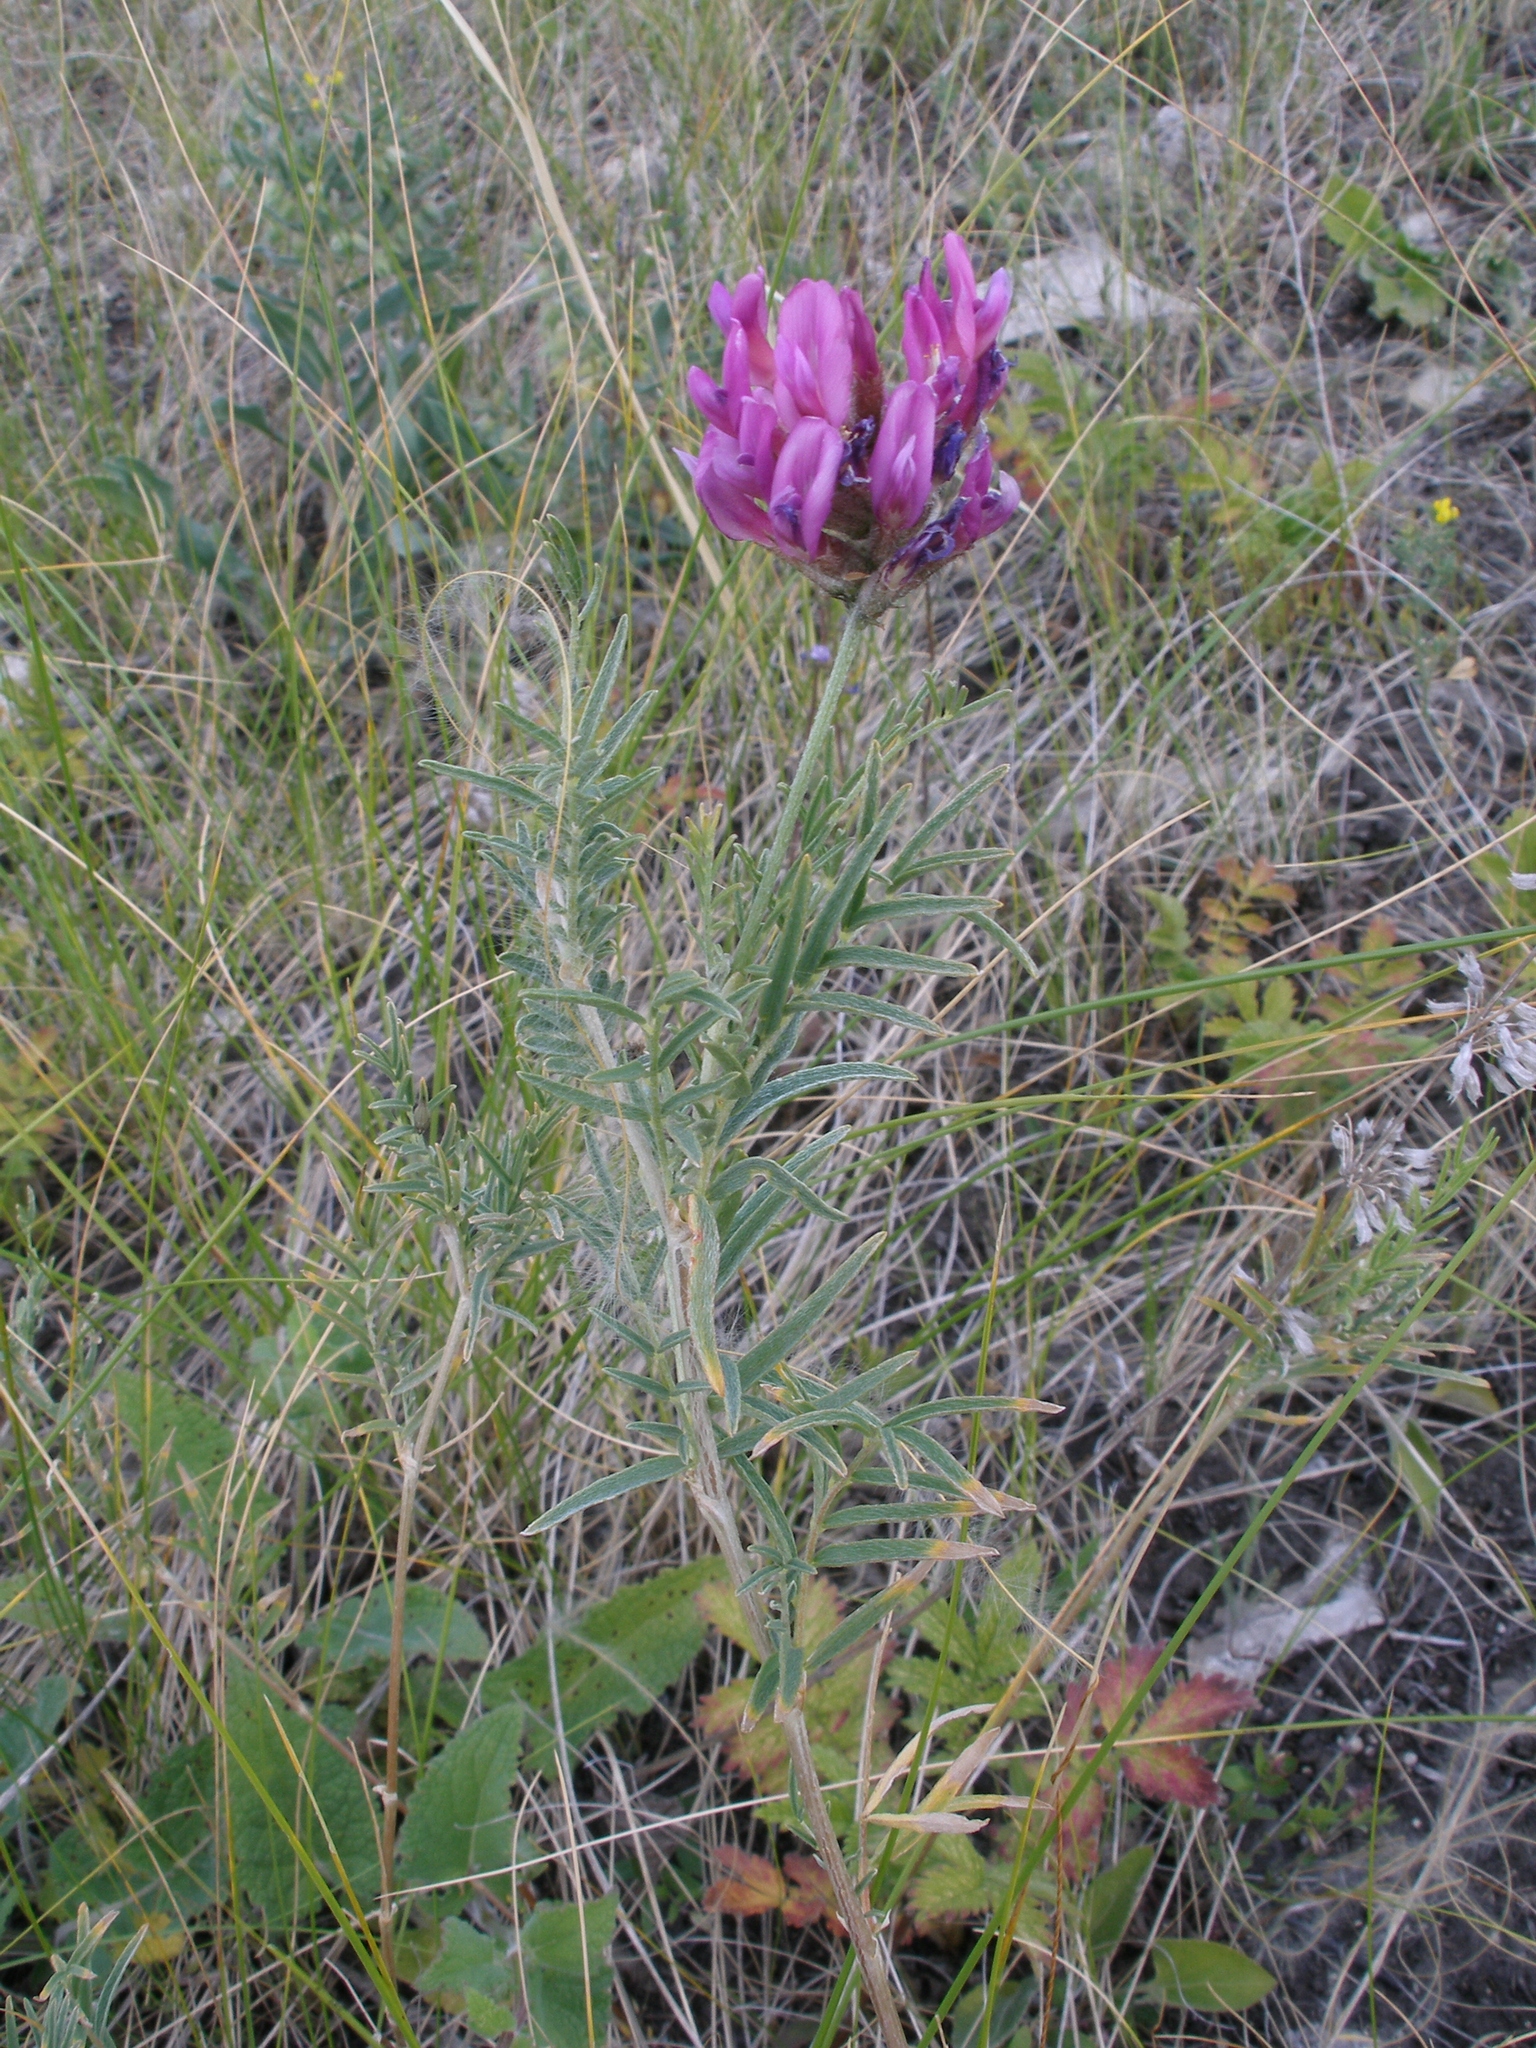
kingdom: Plantae
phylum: Tracheophyta
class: Magnoliopsida
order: Fabales
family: Fabaceae
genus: Astragalus
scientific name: Astragalus cornutus
